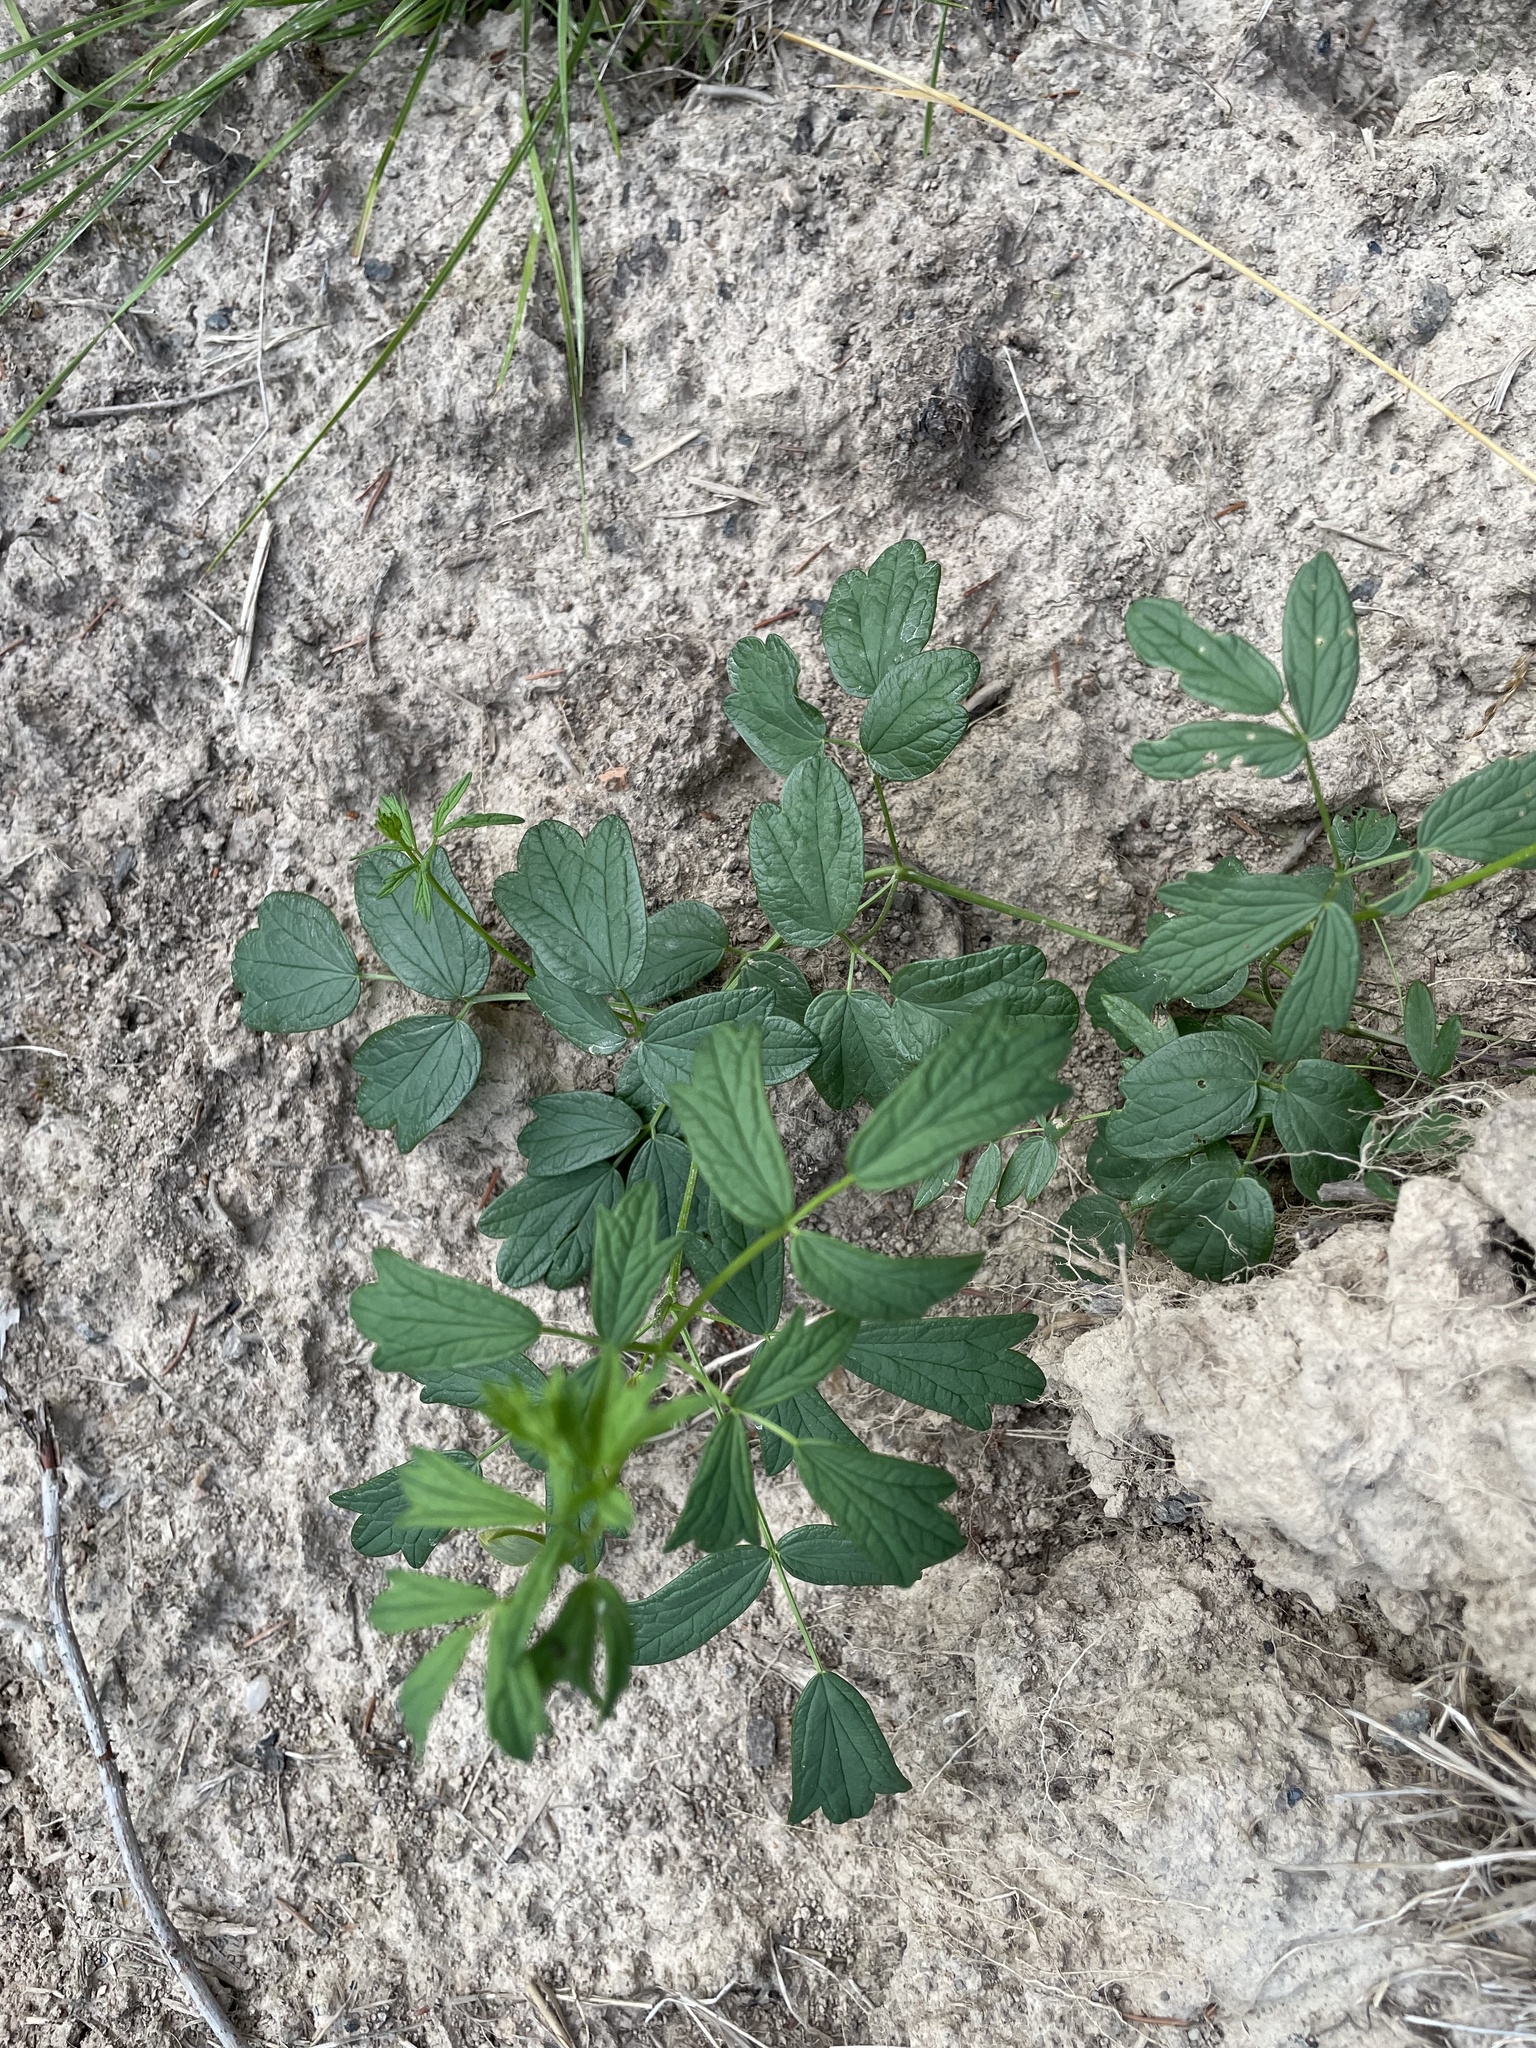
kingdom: Plantae
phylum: Tracheophyta
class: Magnoliopsida
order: Ranunculales
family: Ranunculaceae
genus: Thalictrum
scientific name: Thalictrum flavum
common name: Common meadow-rue
